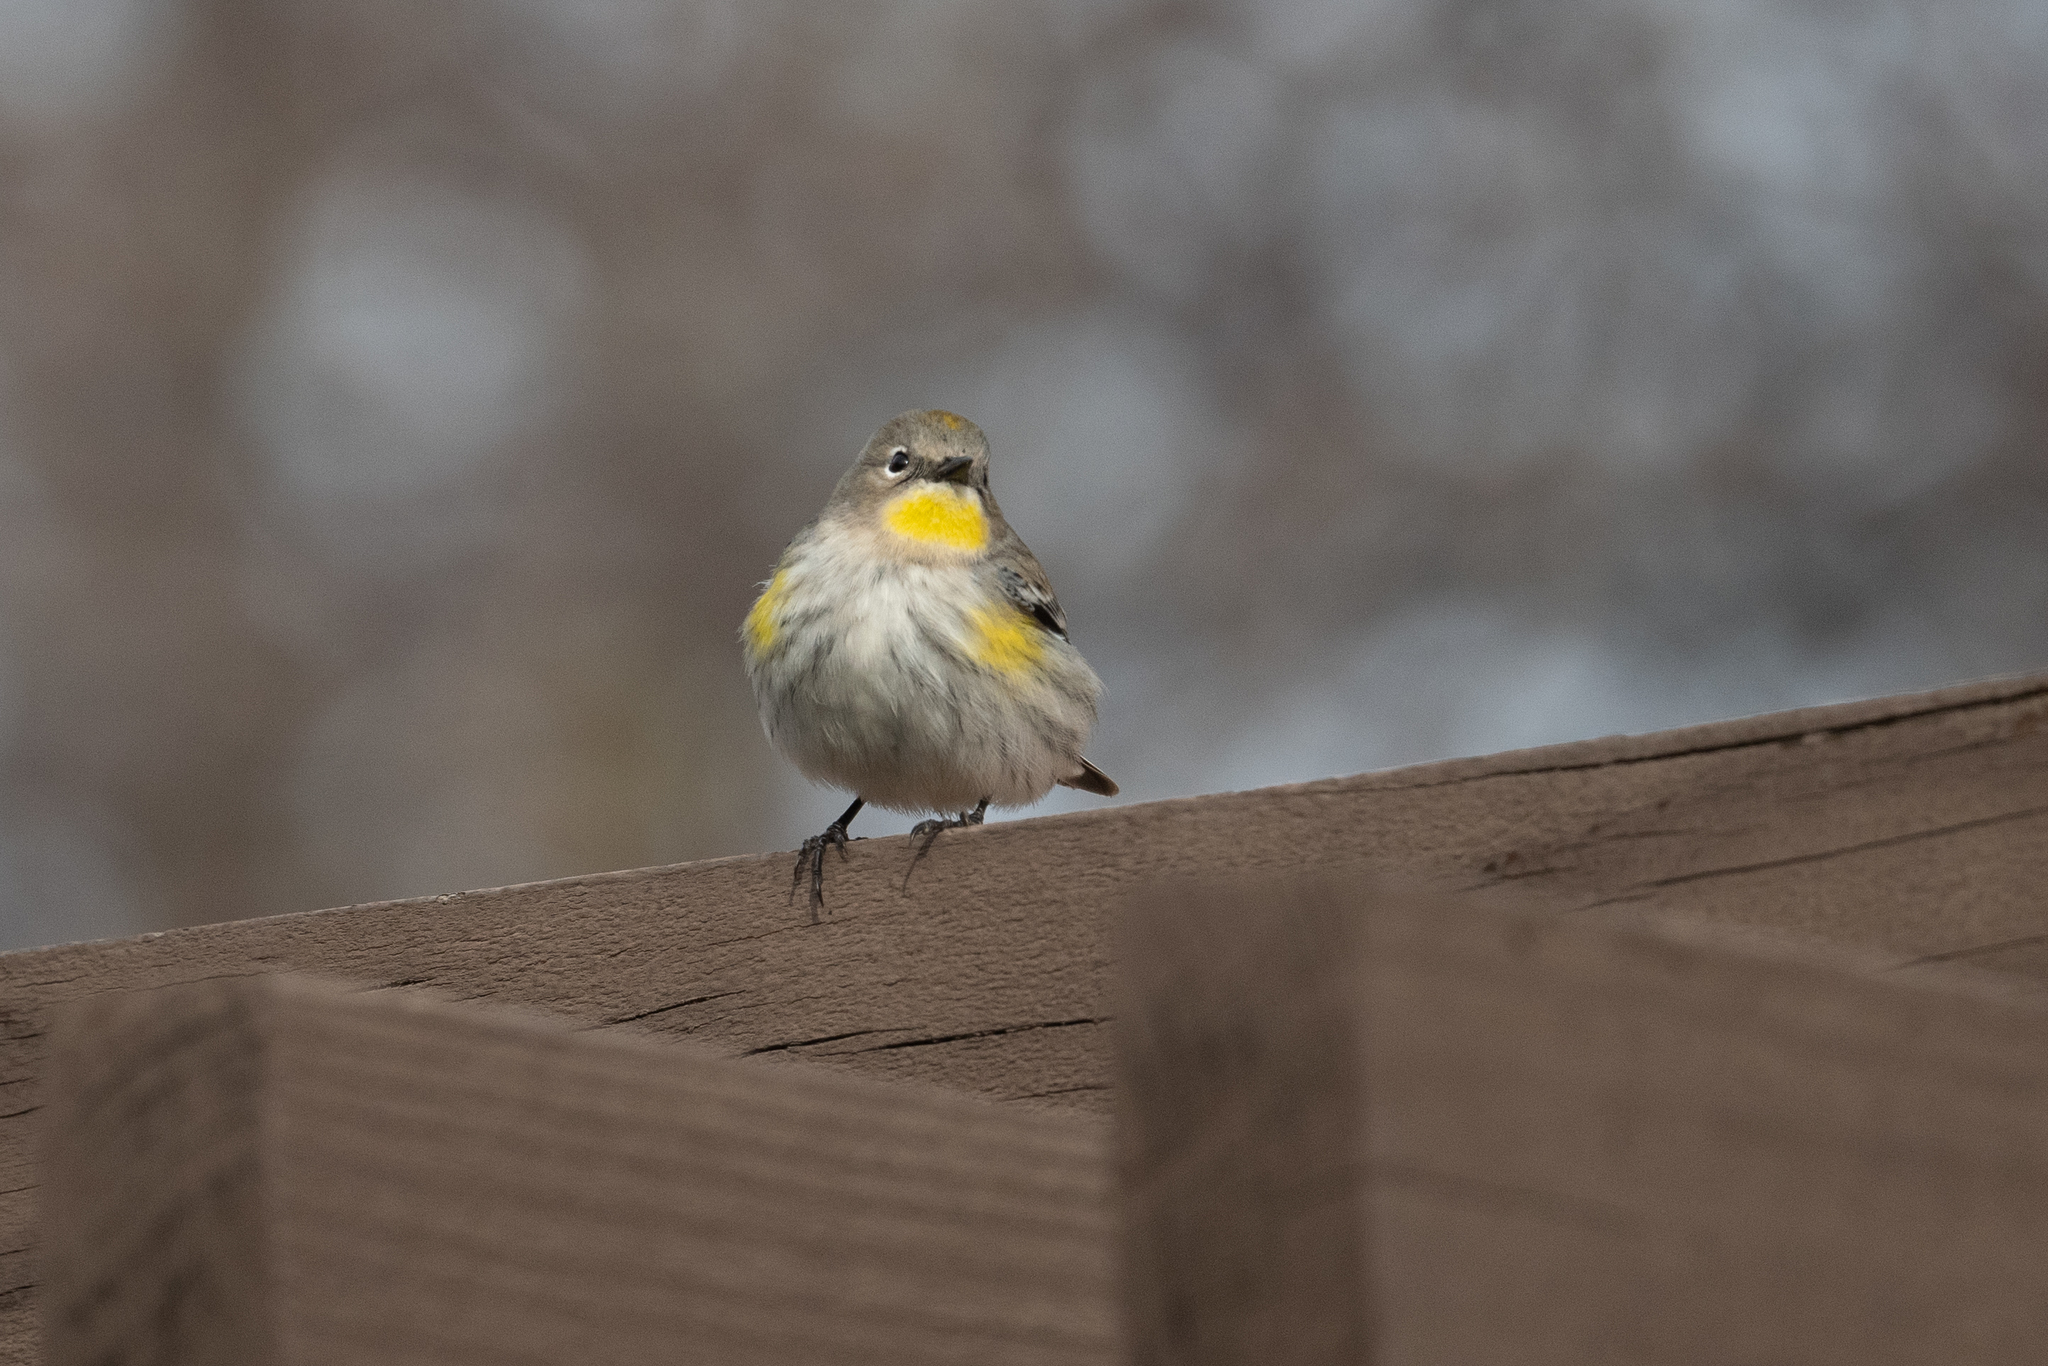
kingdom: Animalia
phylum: Chordata
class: Aves
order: Passeriformes
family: Parulidae
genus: Setophaga
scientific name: Setophaga coronata
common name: Myrtle warbler
